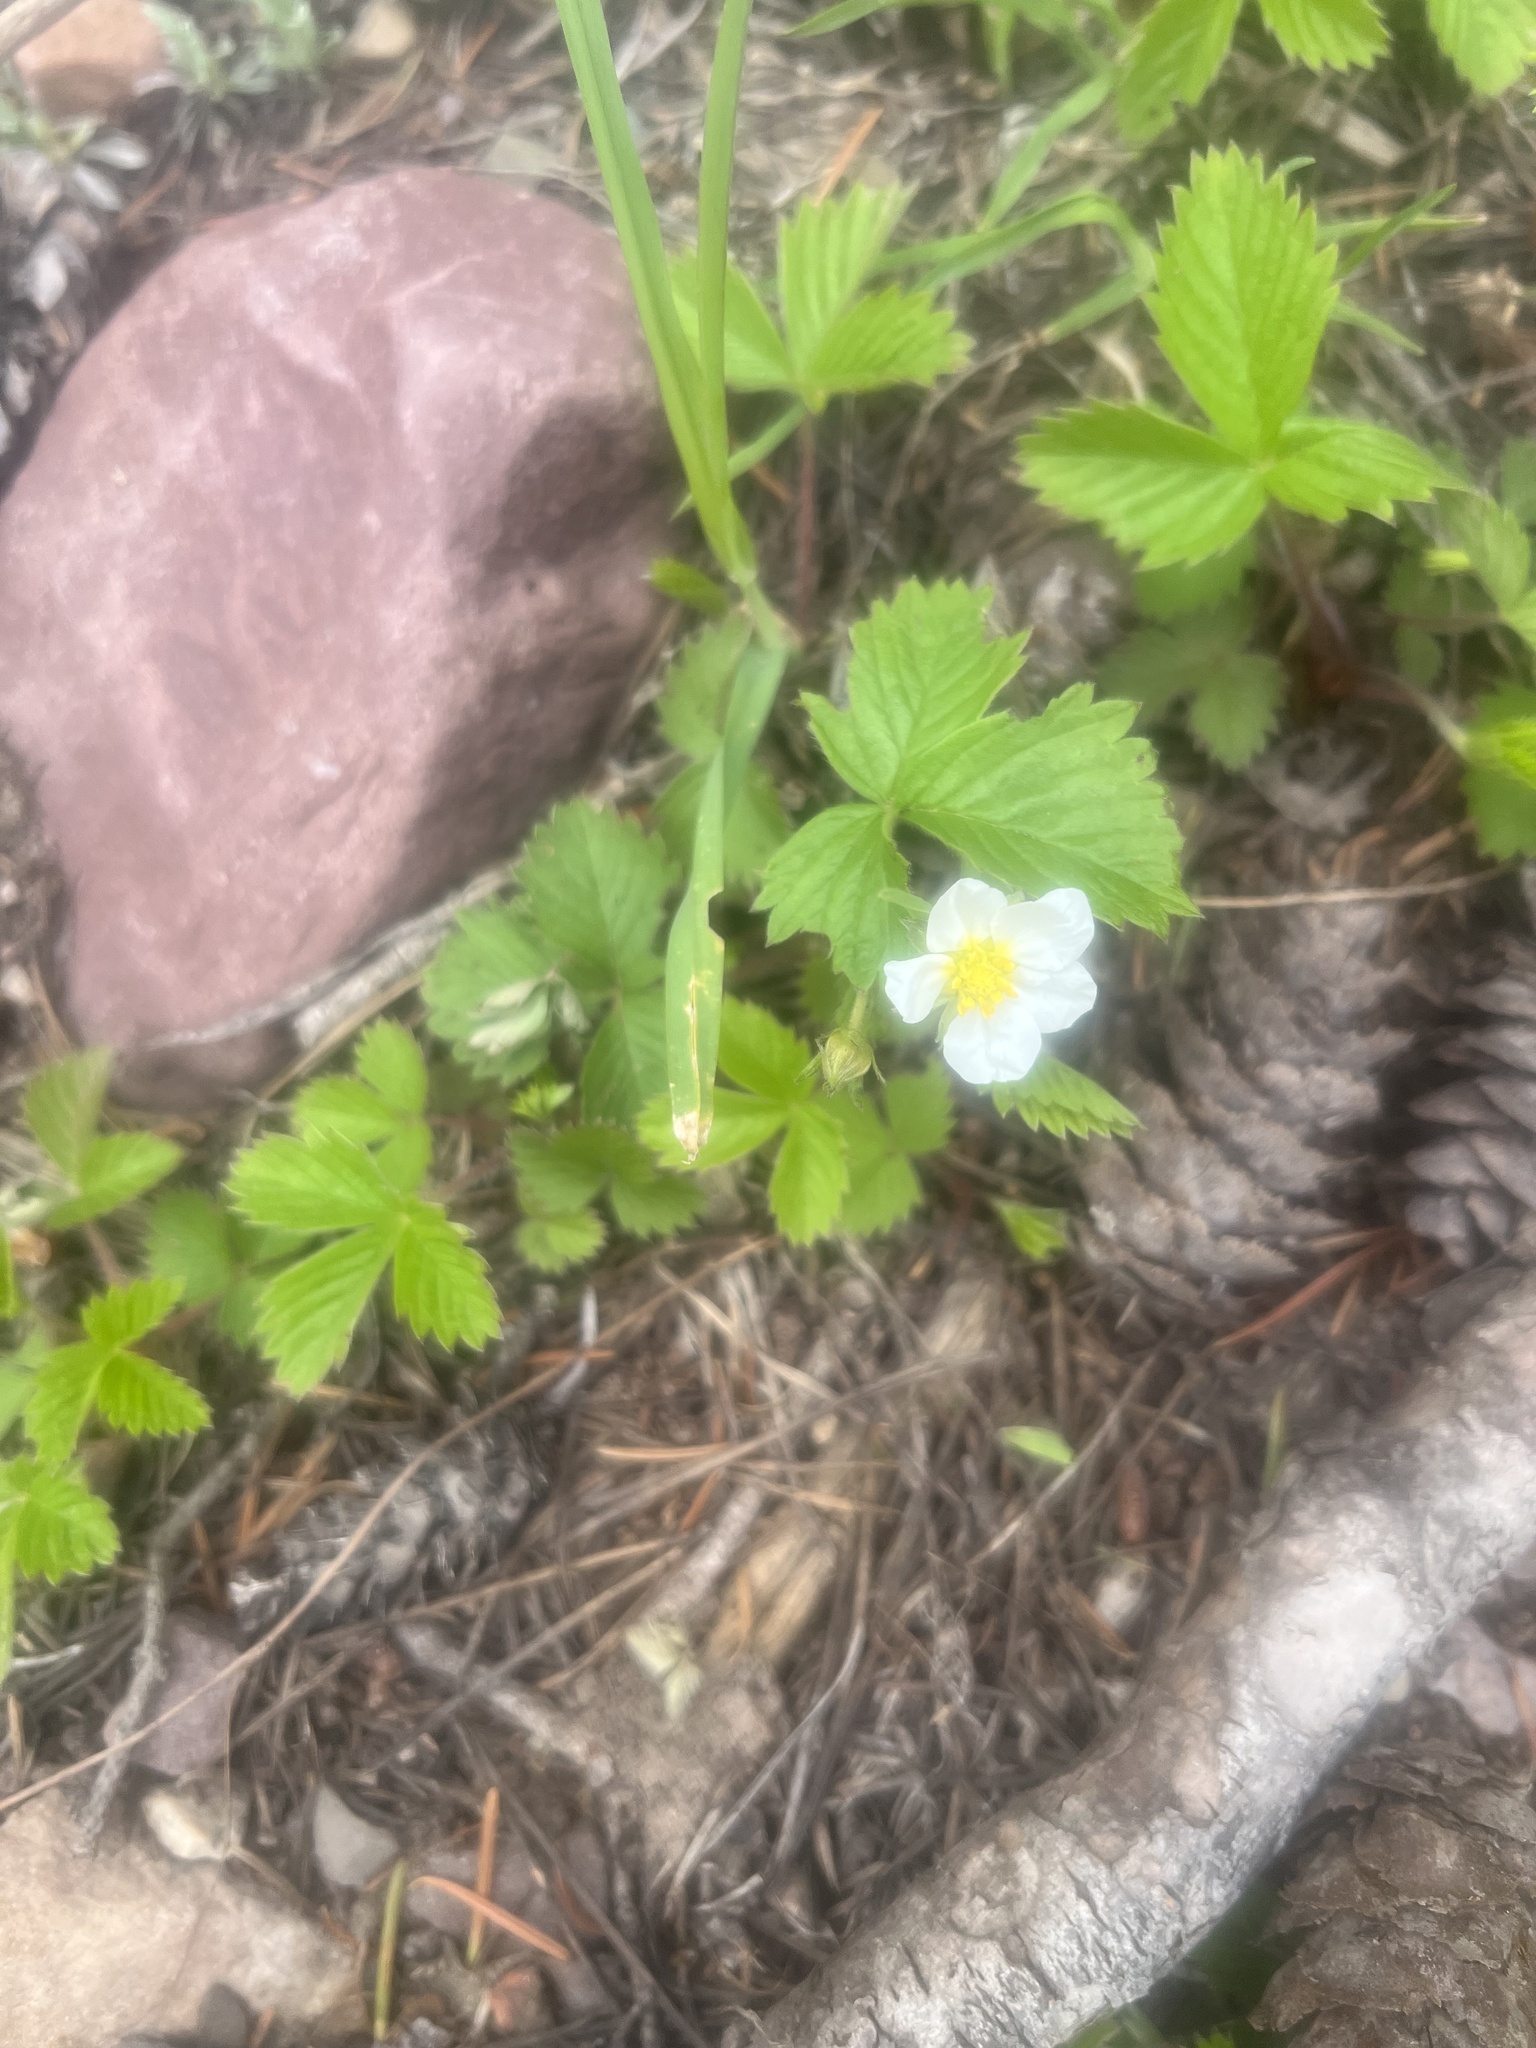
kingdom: Plantae
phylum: Tracheophyta
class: Magnoliopsida
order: Rosales
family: Rosaceae
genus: Fragaria
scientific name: Fragaria vesca
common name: Wild strawberry
